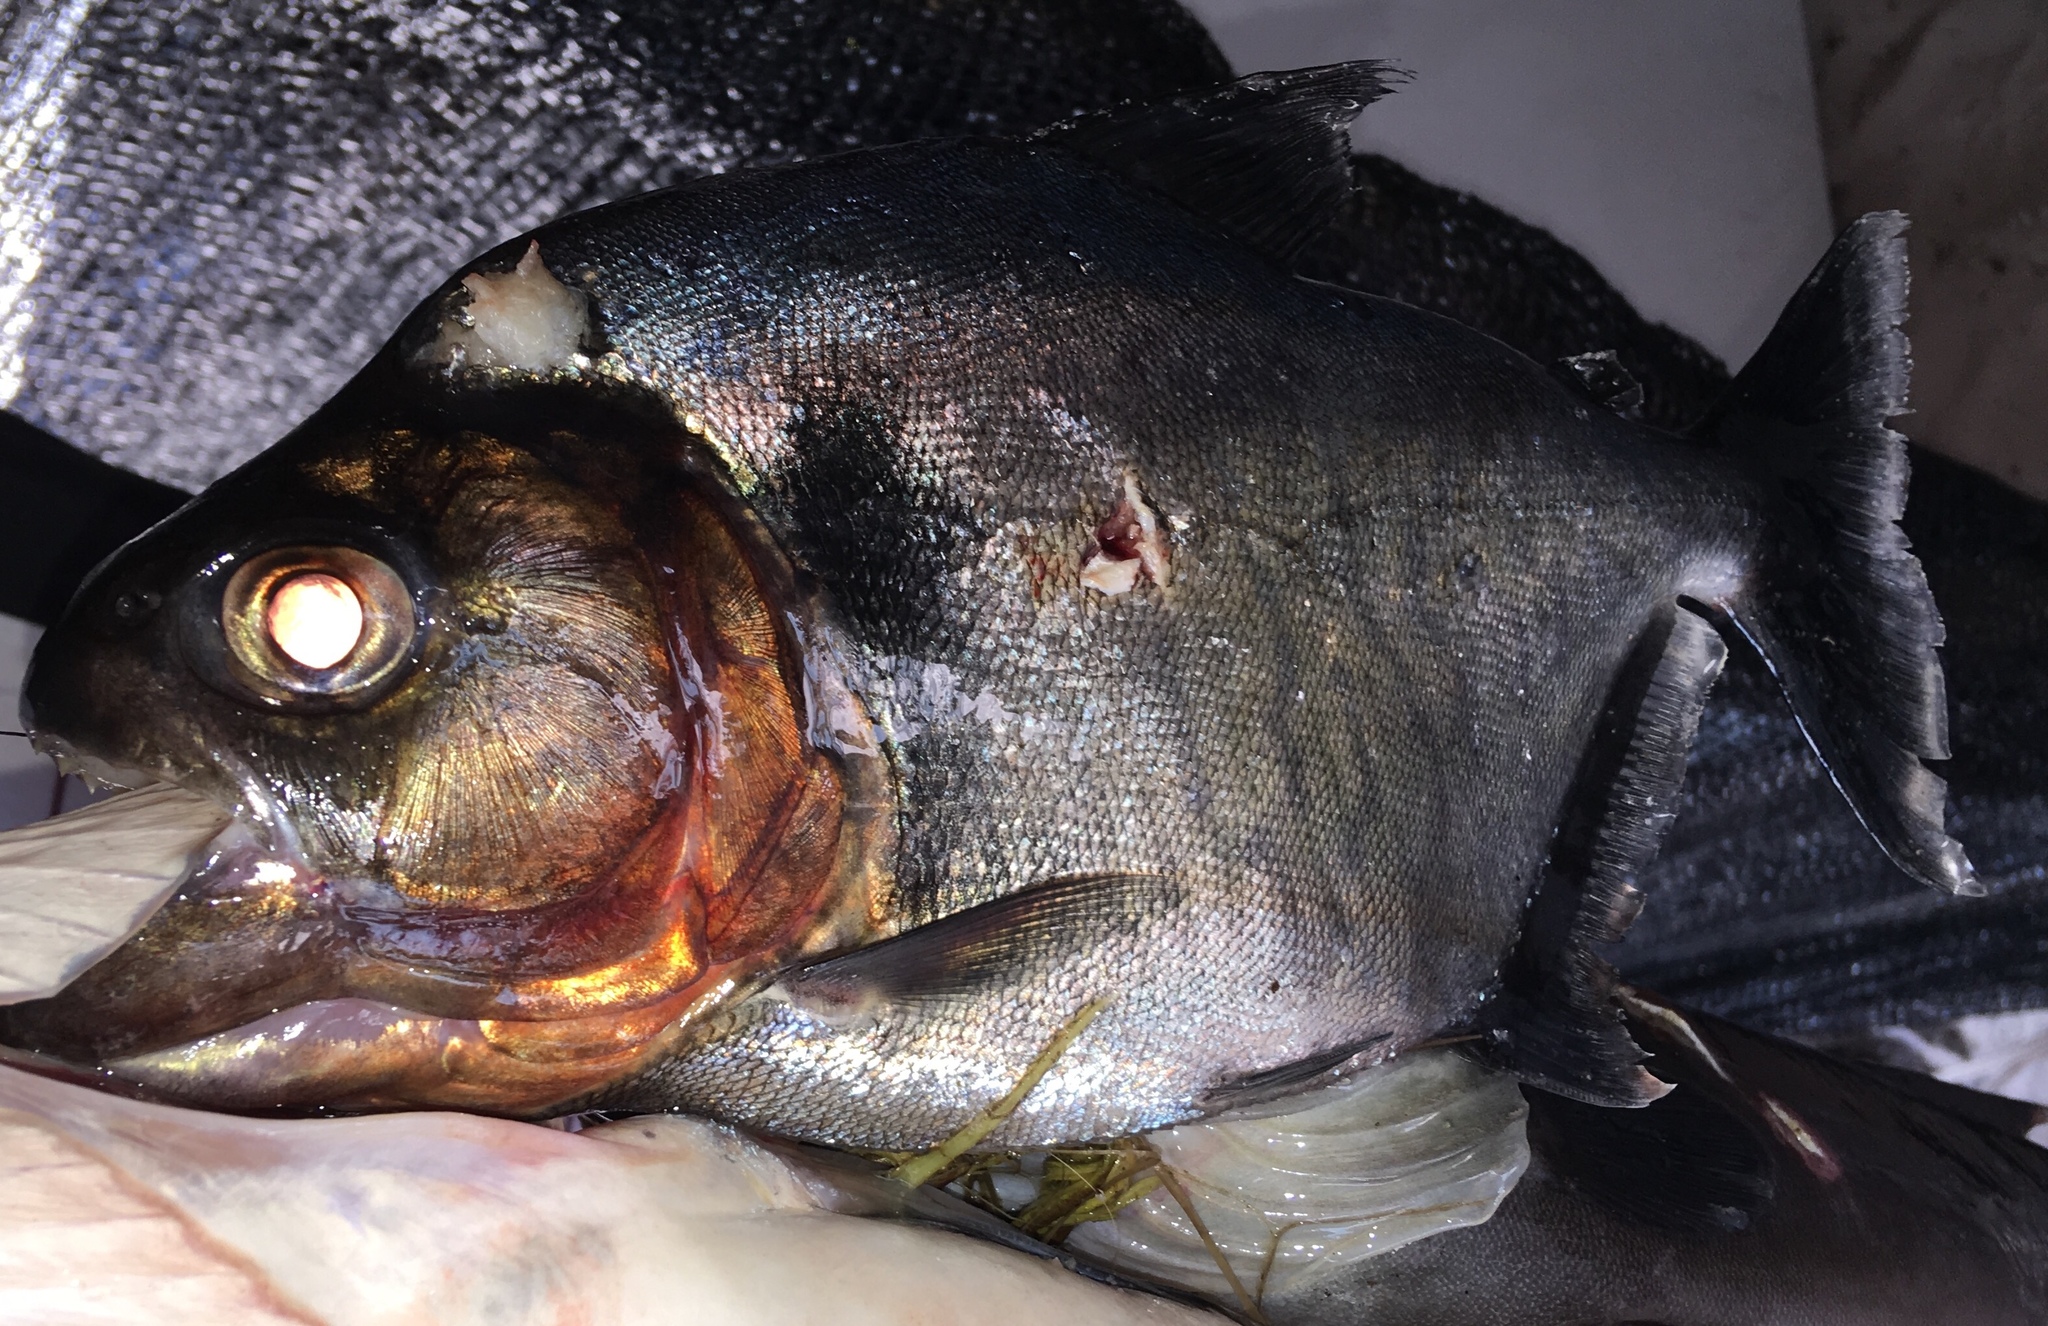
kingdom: Animalia
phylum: Chordata
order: Characiformes
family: Serrasalmidae
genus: Serrasalmus
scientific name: Serrasalmus rhombeus
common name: Redeye piranha
